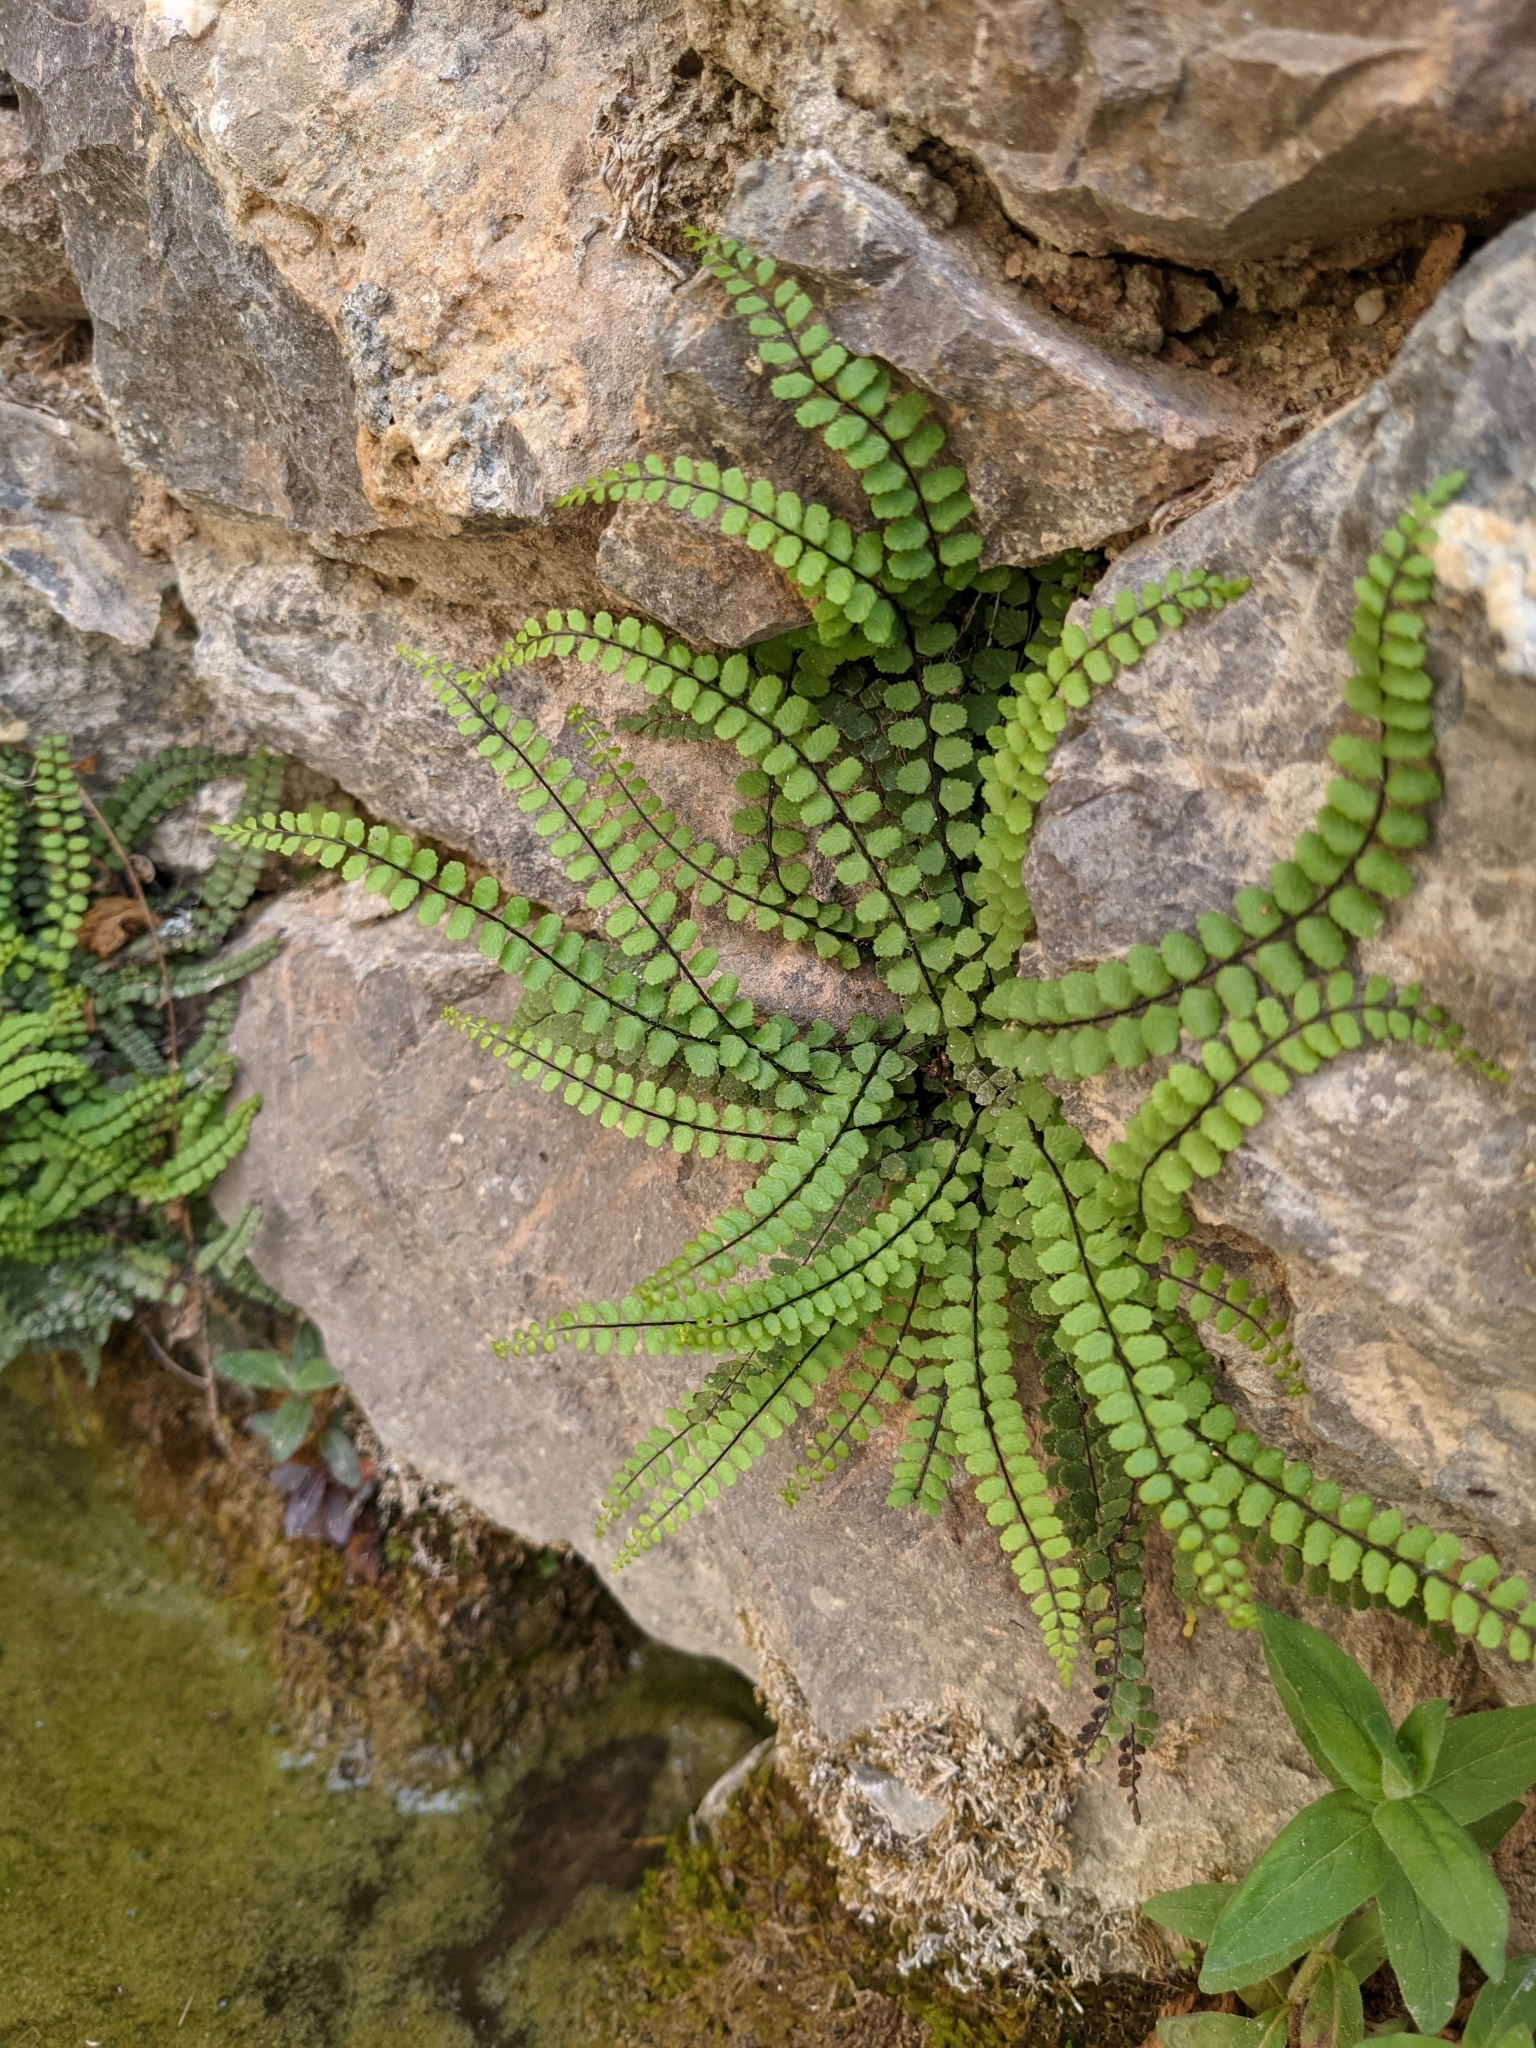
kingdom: Plantae
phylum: Tracheophyta
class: Polypodiopsida
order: Polypodiales
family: Aspleniaceae
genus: Asplenium
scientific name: Asplenium trichomanes
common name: Maidenhair spleenwort
